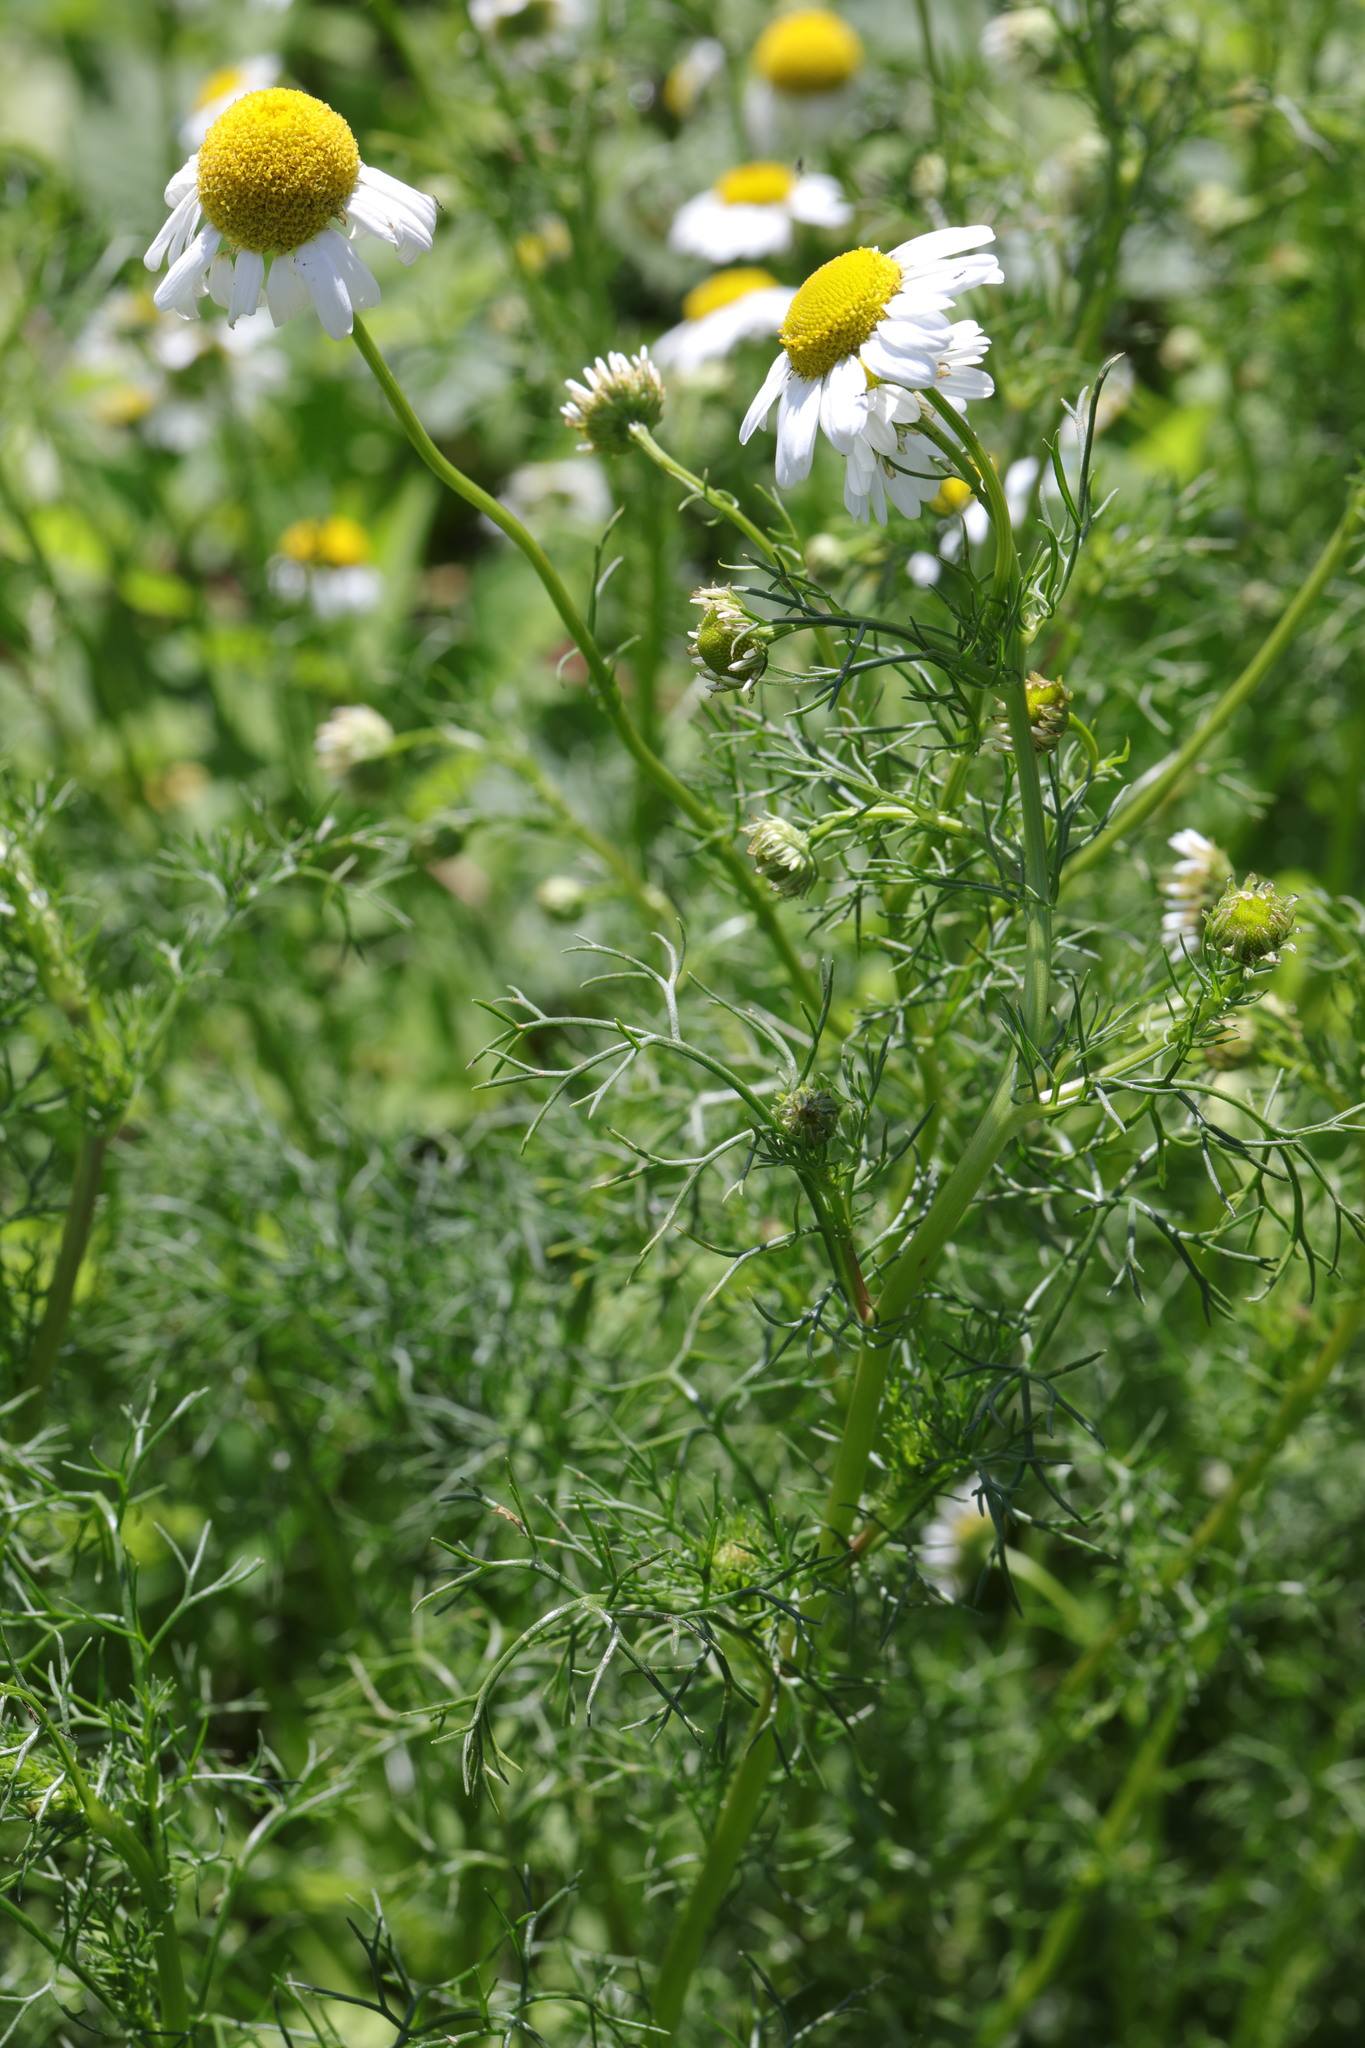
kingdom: Plantae
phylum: Tracheophyta
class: Magnoliopsida
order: Asterales
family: Asteraceae
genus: Tripleurospermum
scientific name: Tripleurospermum maritimum
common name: Sea mayweed
